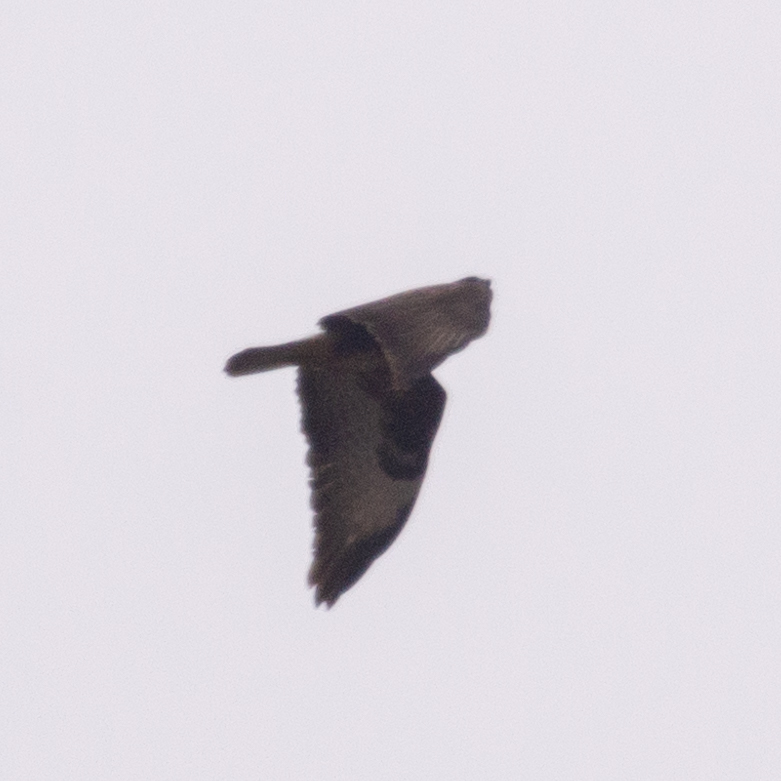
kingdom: Animalia
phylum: Chordata
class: Aves
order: Accipitriformes
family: Accipitridae
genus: Buteo
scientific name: Buteo buteo
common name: Common buzzard
